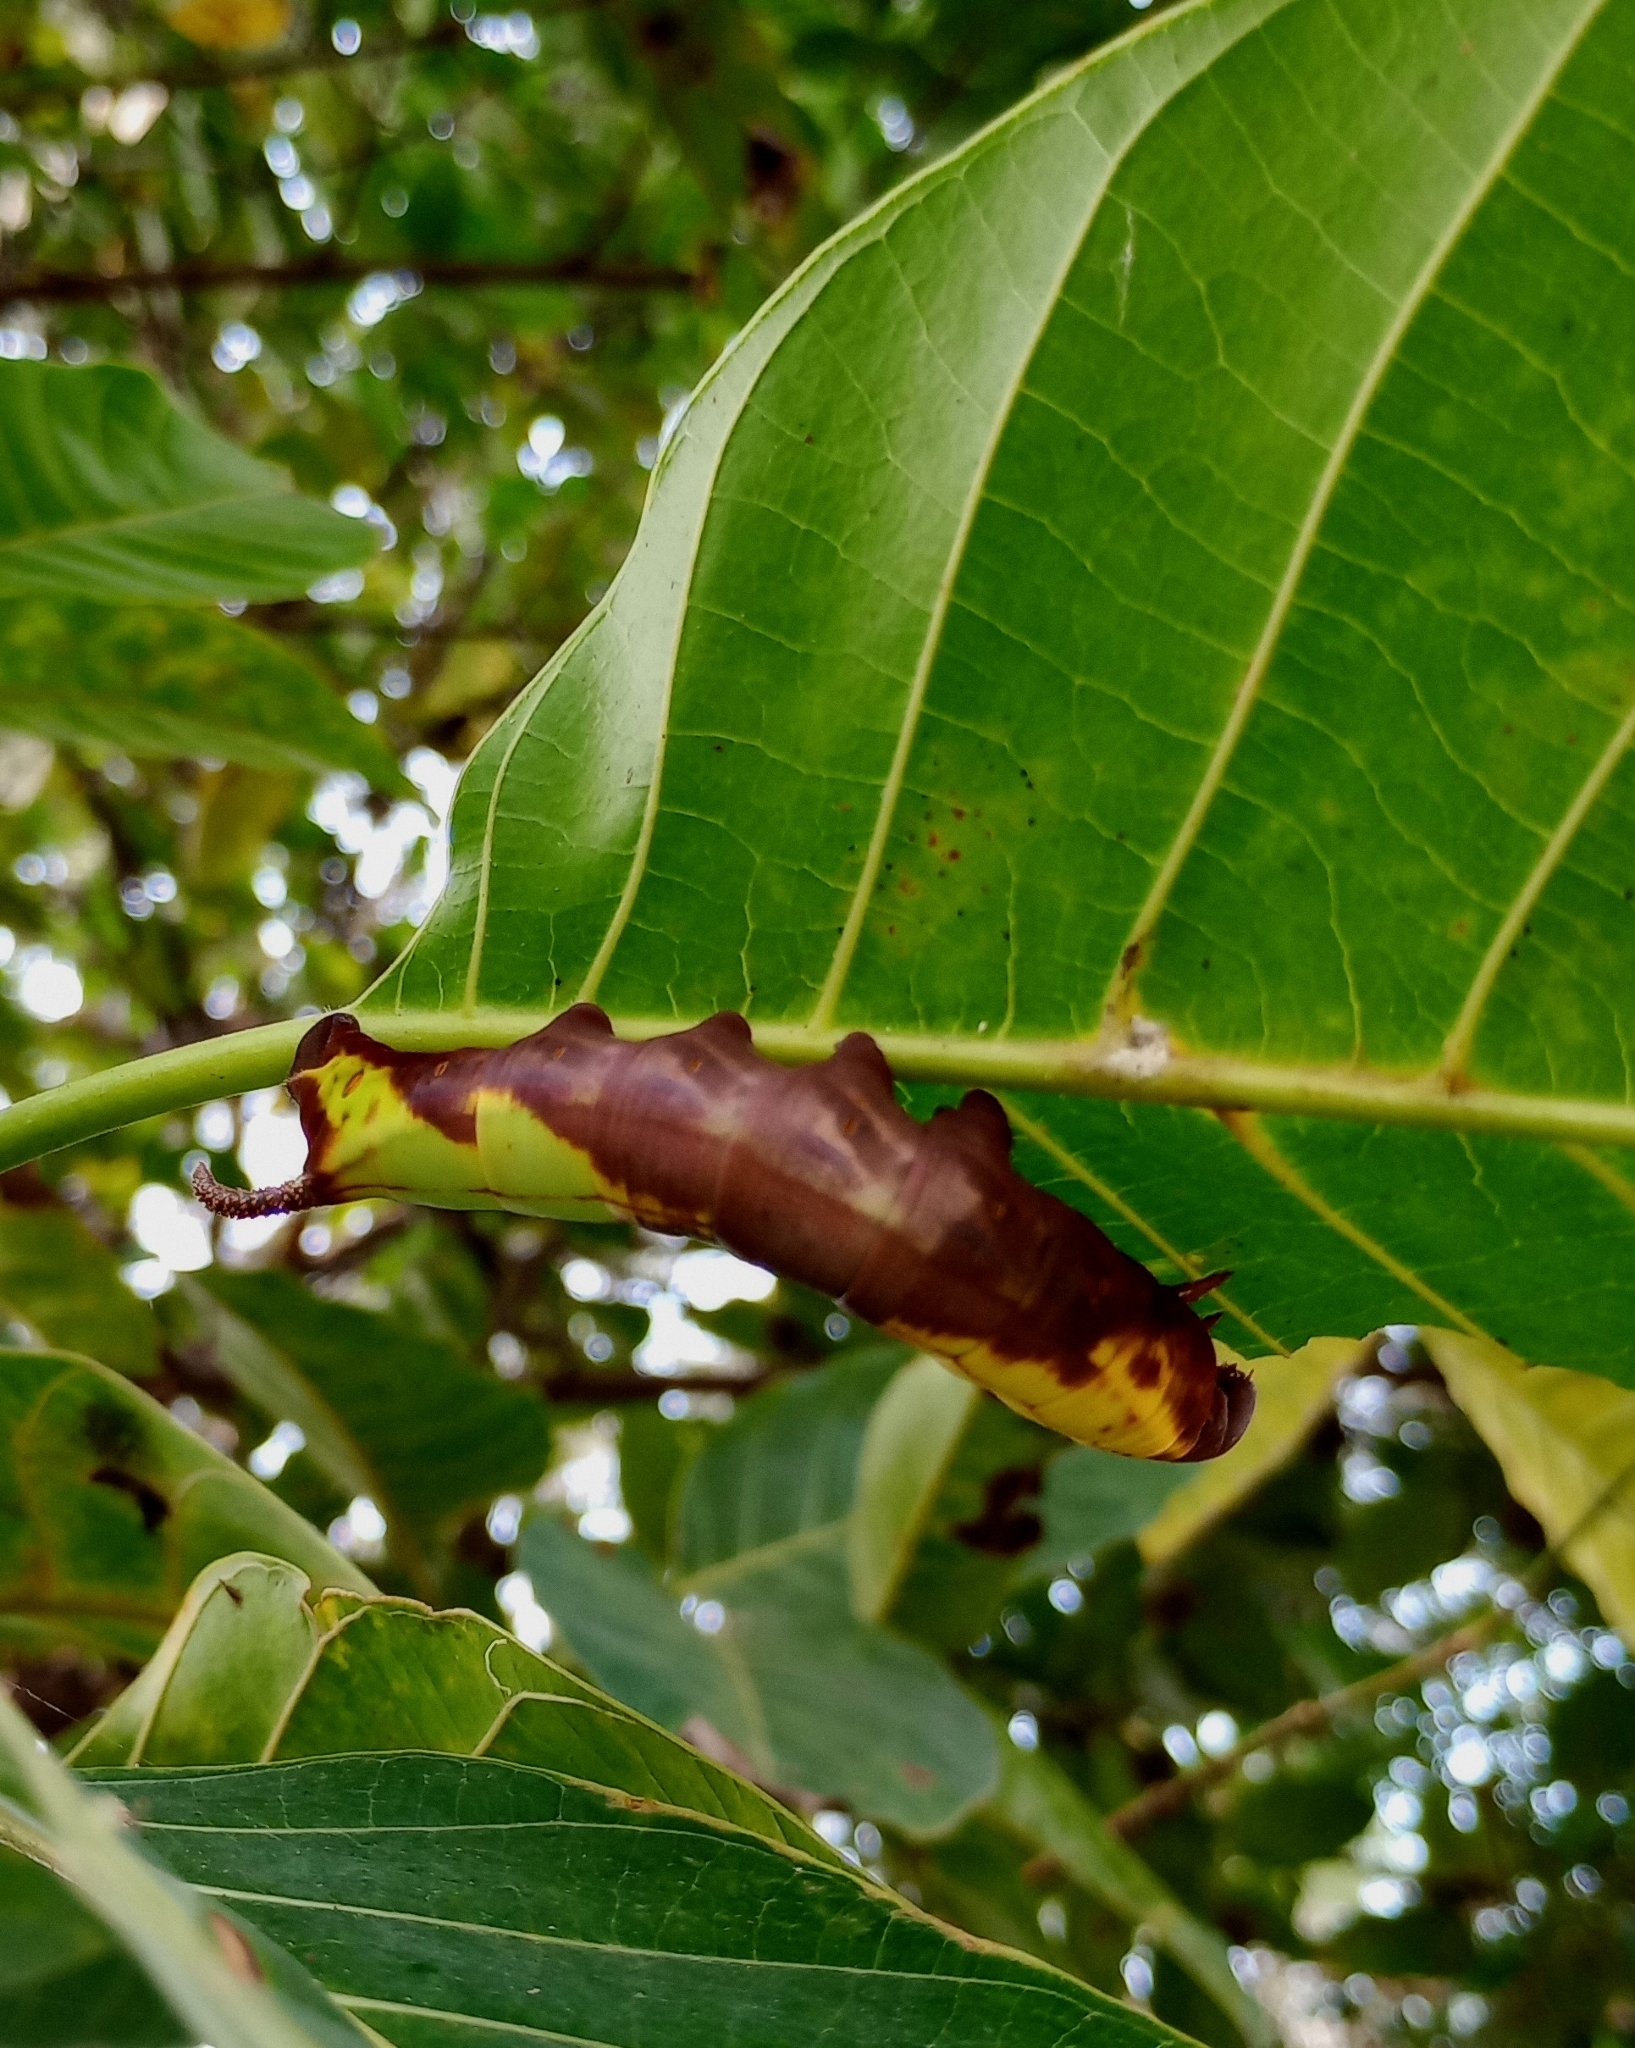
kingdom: Animalia
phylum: Arthropoda
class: Insecta
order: Lepidoptera
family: Sphingidae
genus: Daphnis
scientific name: Daphnis hypothous
